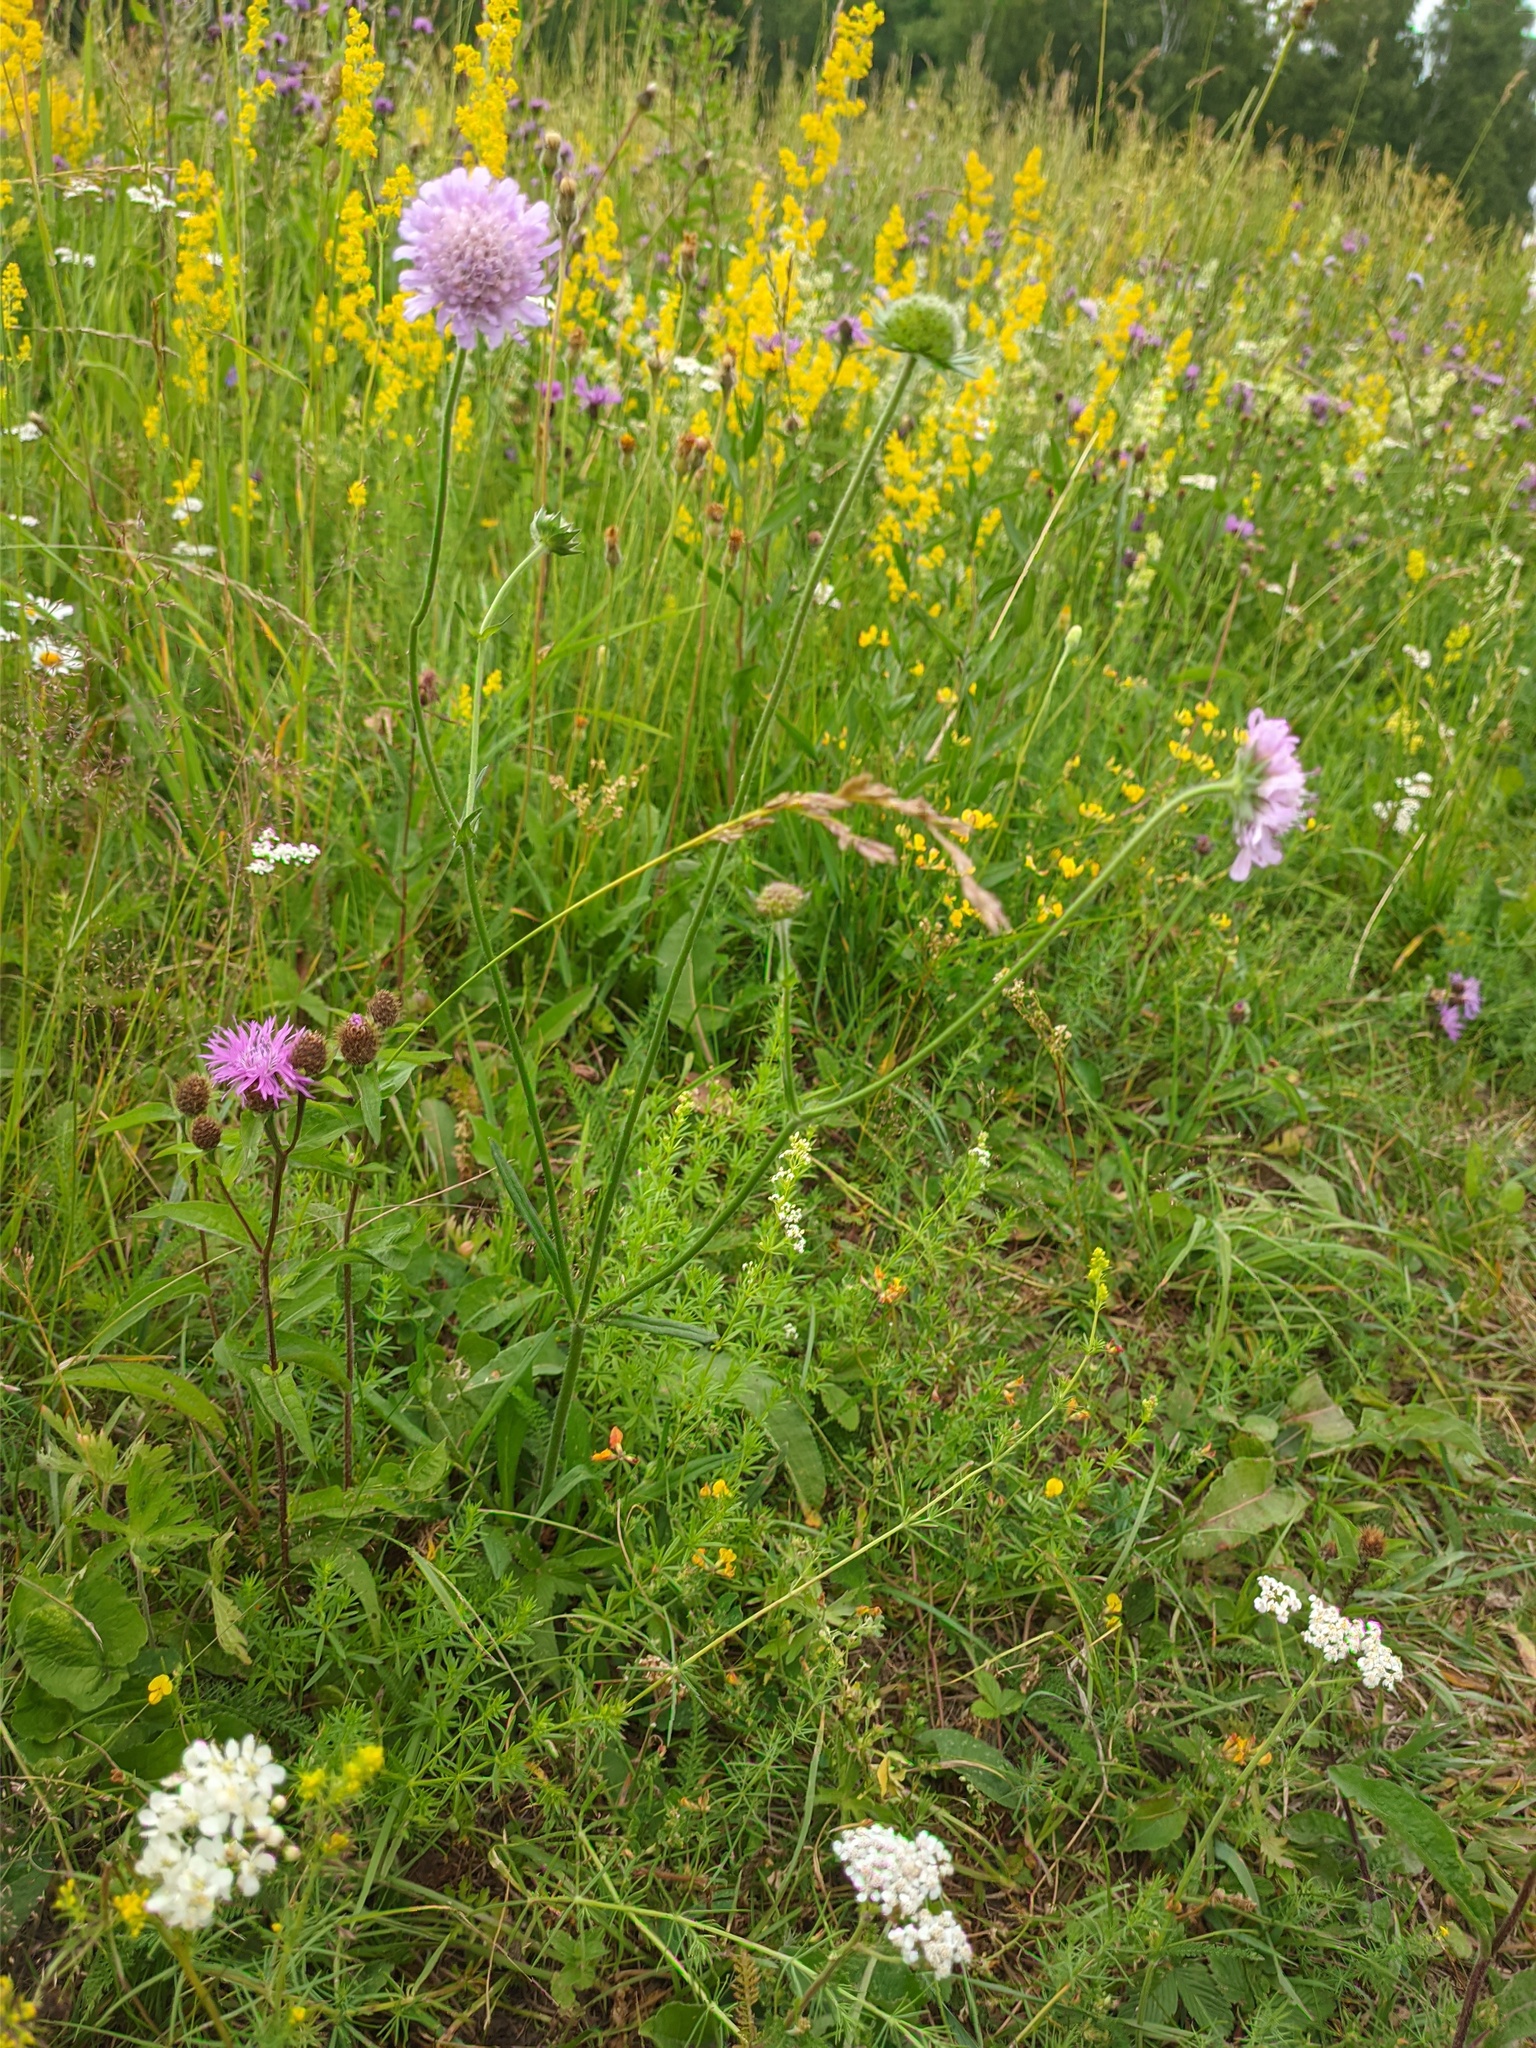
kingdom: Plantae
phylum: Tracheophyta
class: Magnoliopsida
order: Dipsacales
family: Caprifoliaceae
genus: Knautia
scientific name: Knautia arvensis
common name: Field scabiosa
